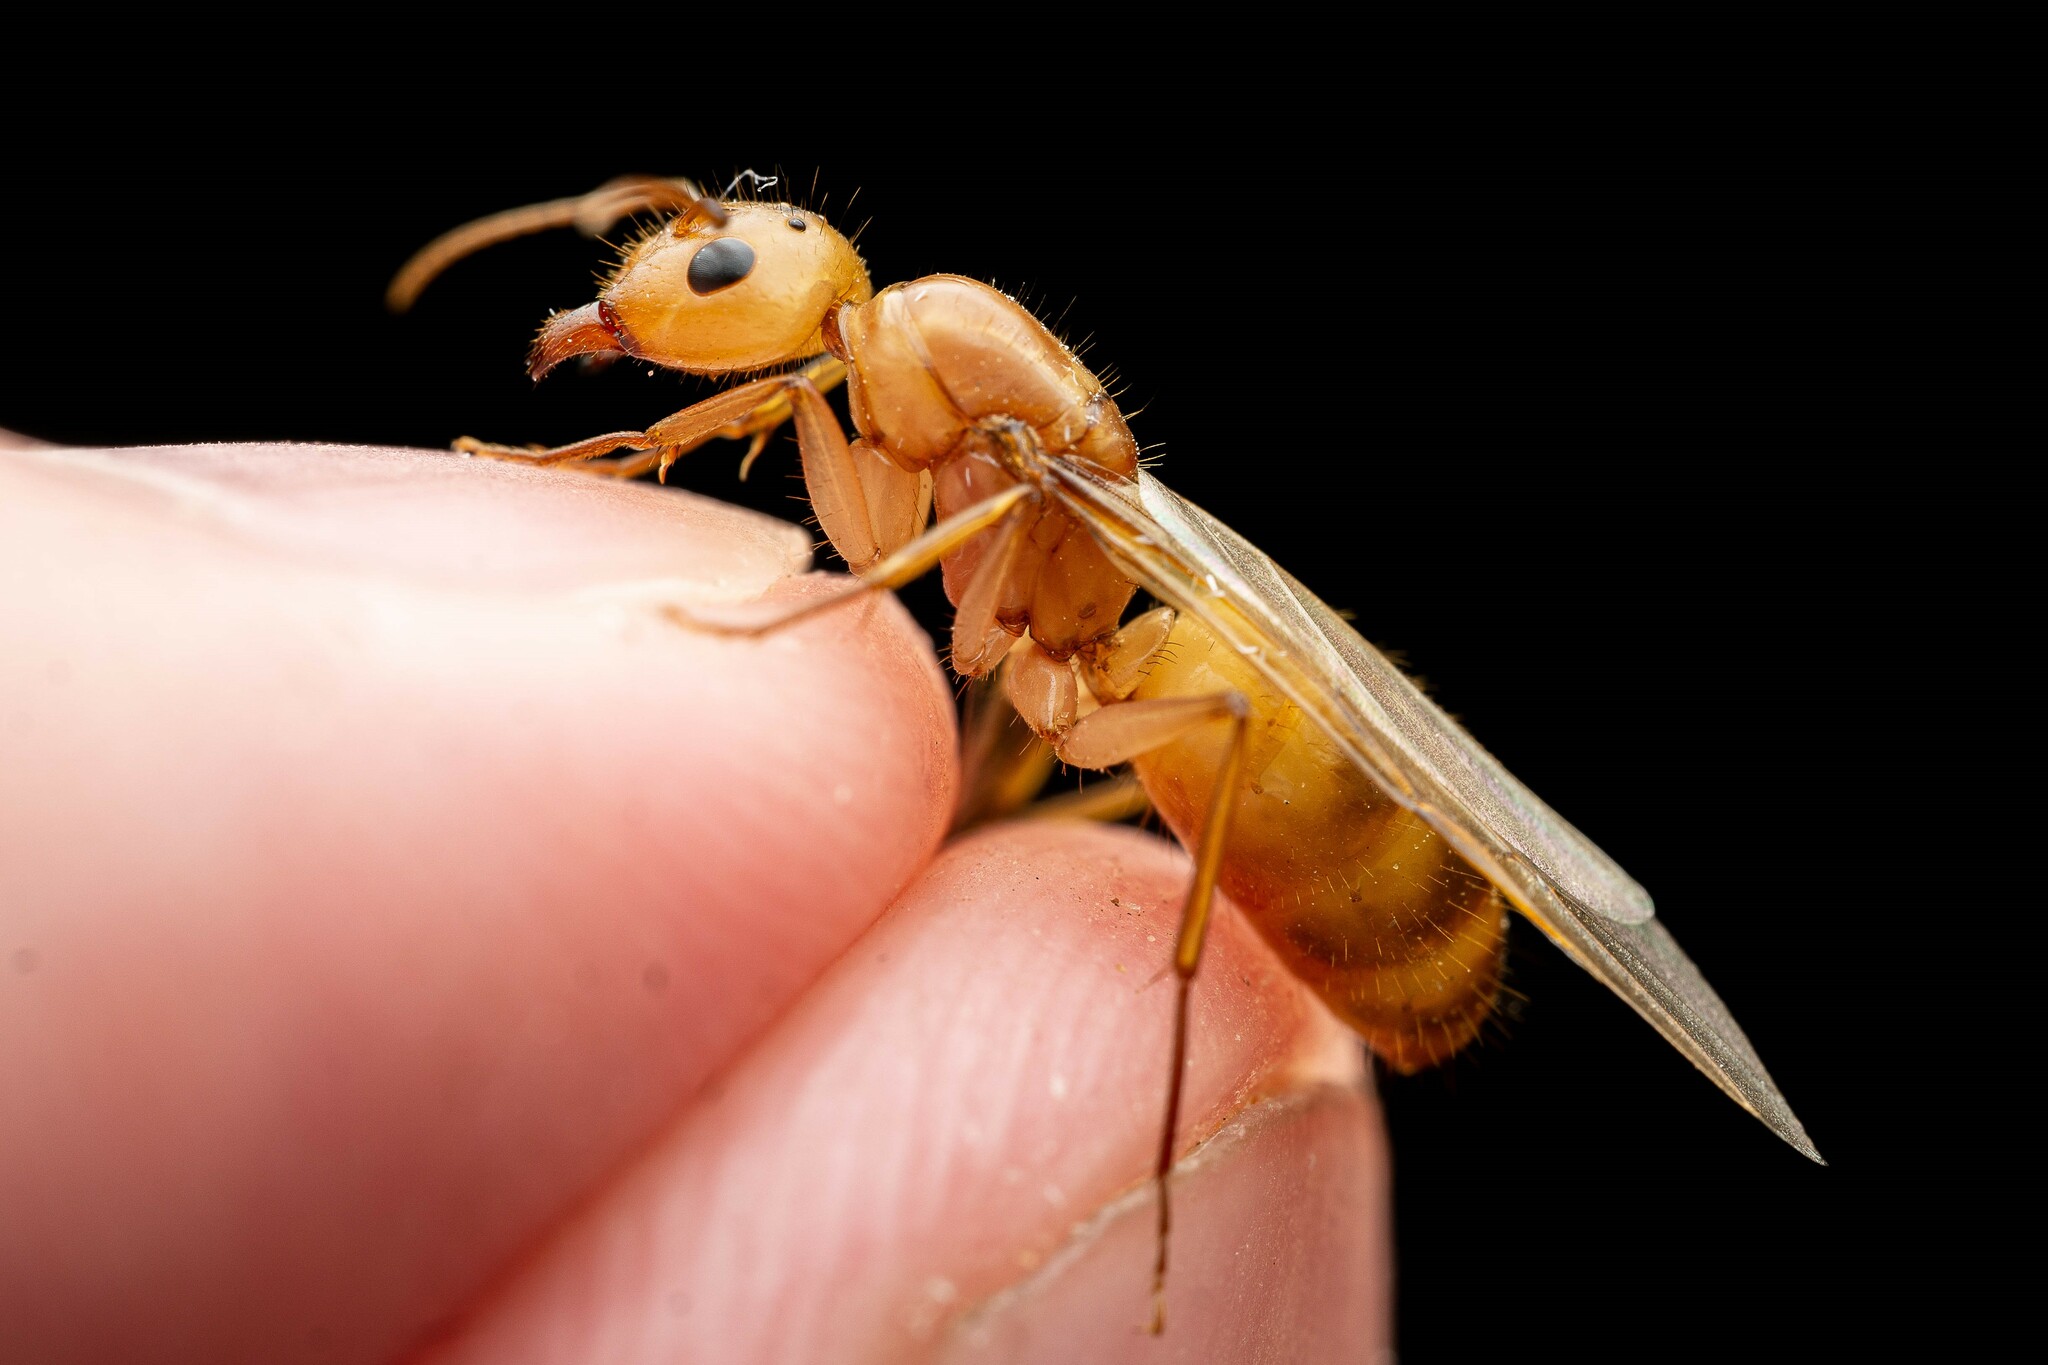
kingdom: Animalia
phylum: Arthropoda
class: Insecta
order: Hymenoptera
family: Formicidae
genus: Camponotus
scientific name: Camponotus fragilis
